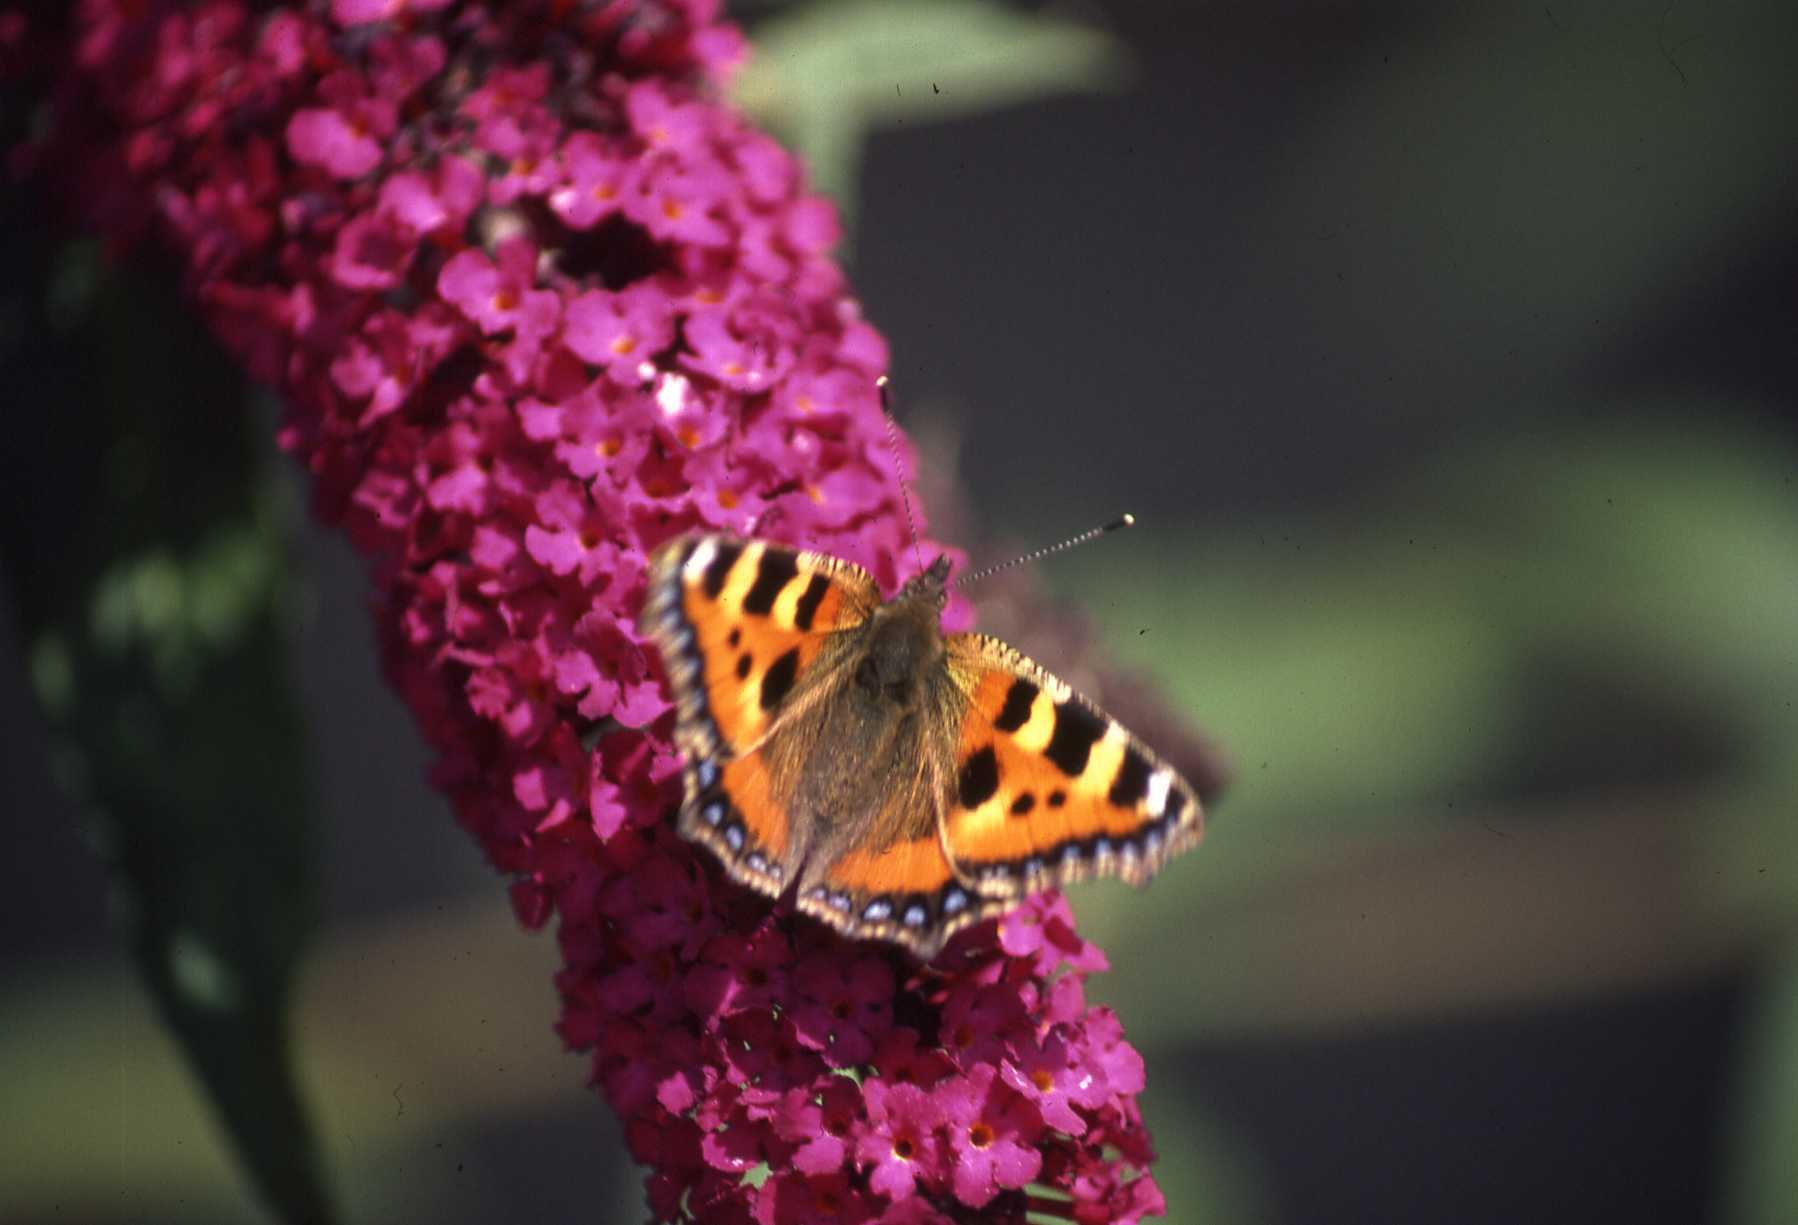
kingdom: Animalia
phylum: Arthropoda
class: Insecta
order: Lepidoptera
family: Nymphalidae
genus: Aglais
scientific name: Aglais urticae
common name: Small tortoiseshell
